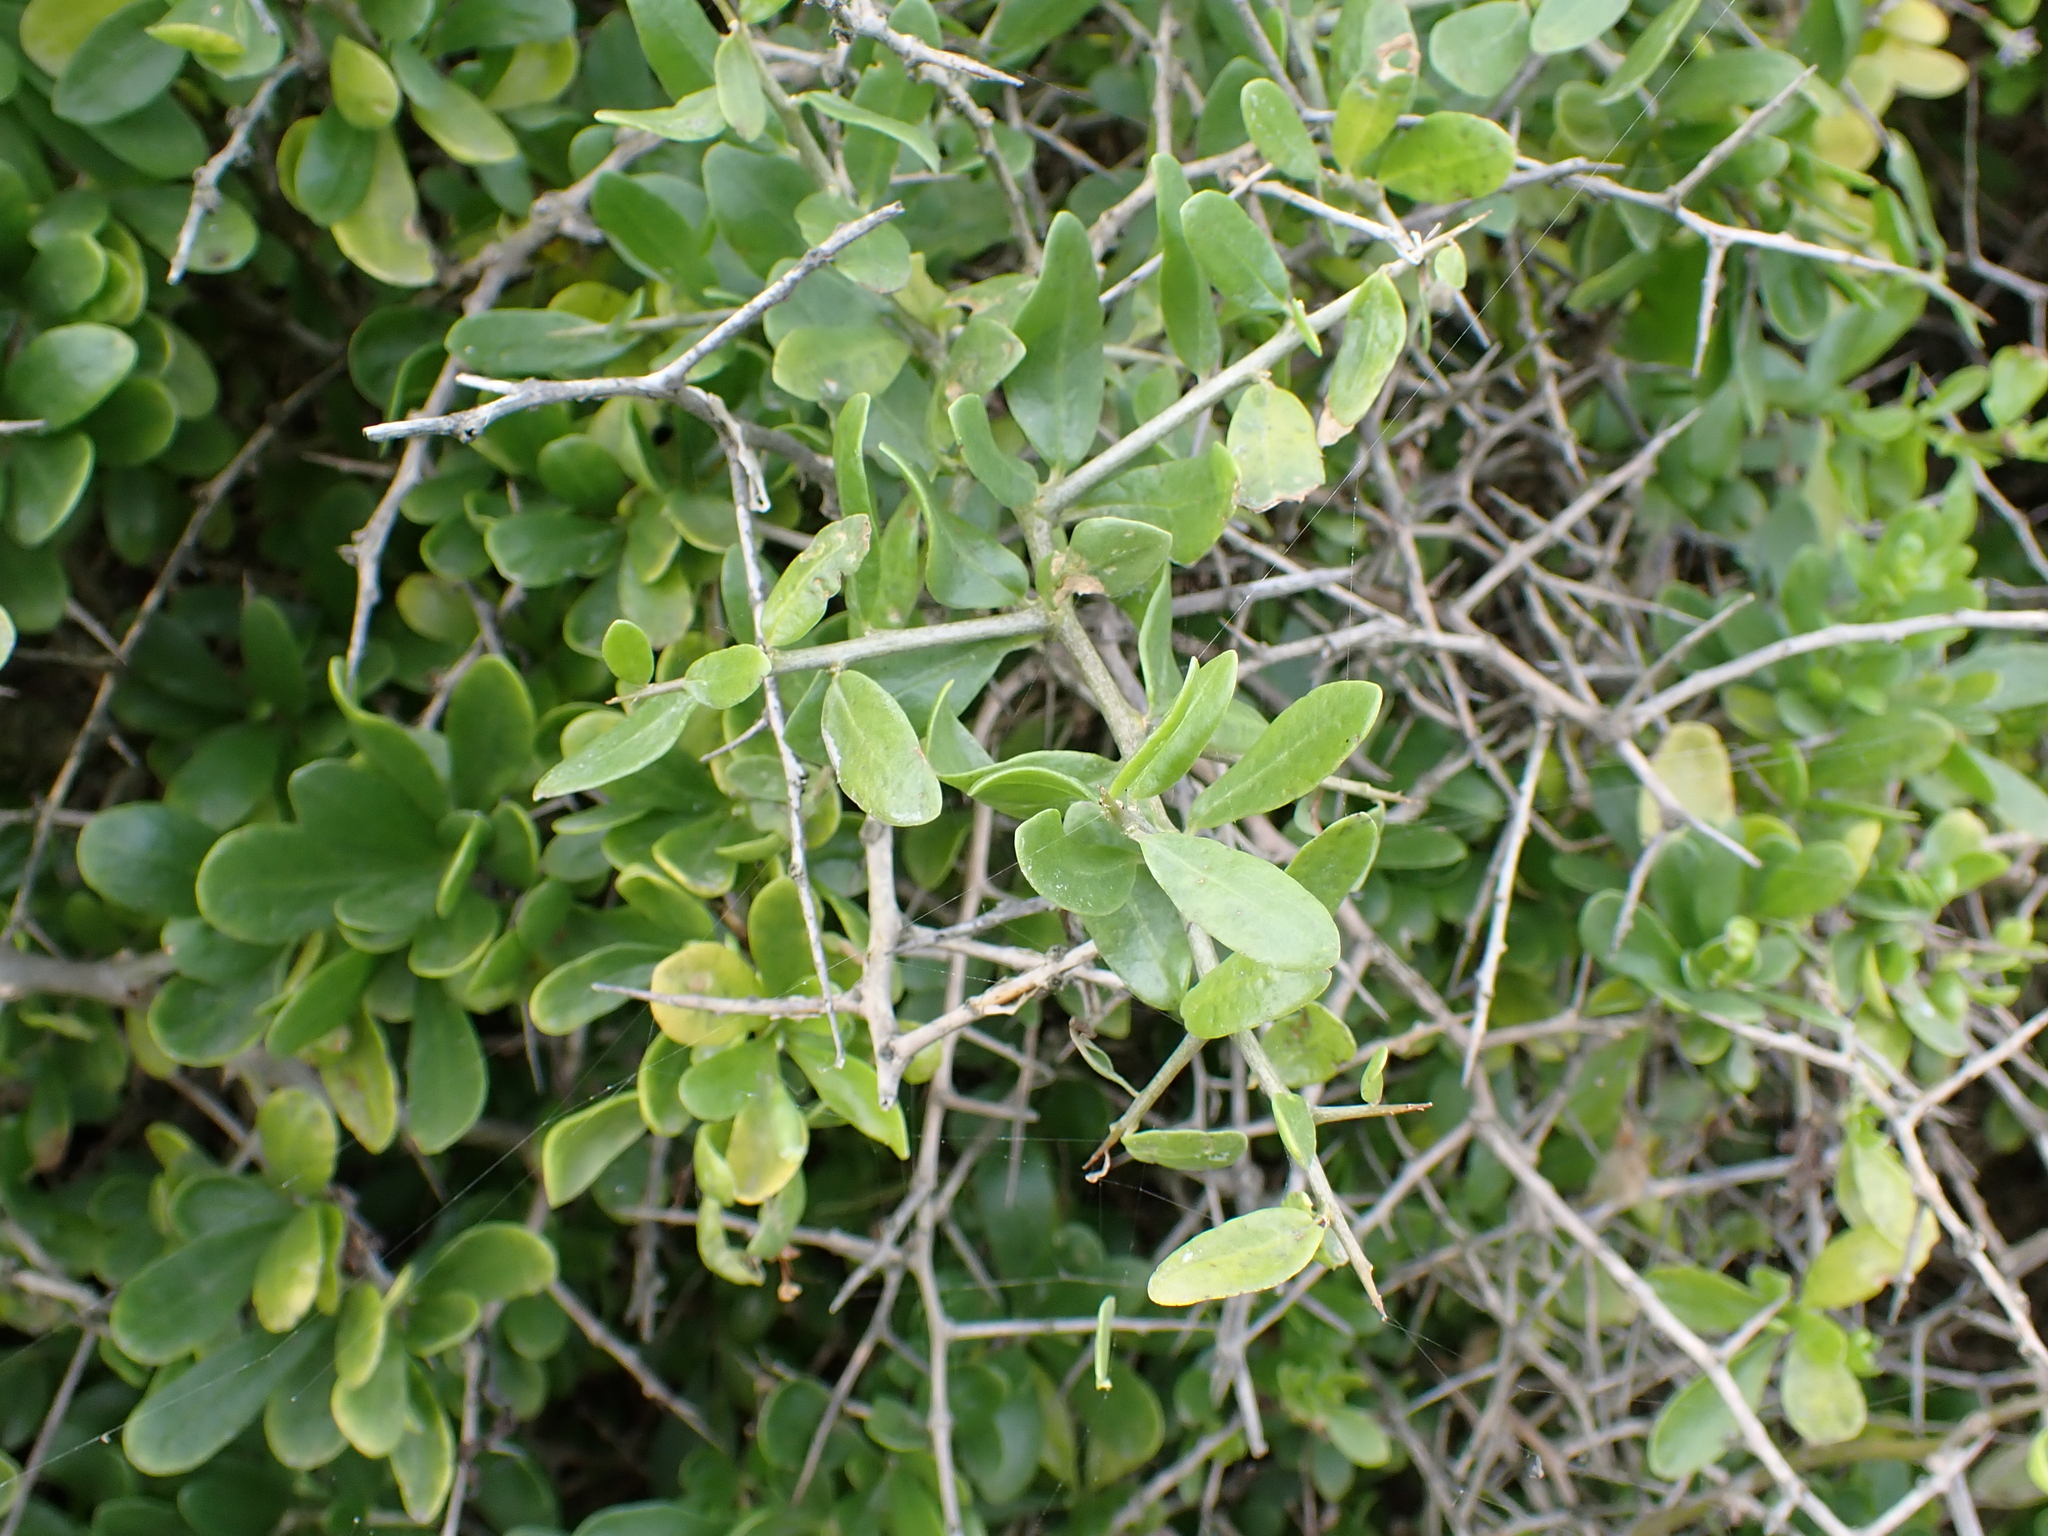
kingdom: Plantae
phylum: Tracheophyta
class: Magnoliopsida
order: Solanales
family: Solanaceae
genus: Lycium
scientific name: Lycium ferocissimum
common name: African boxthorn
